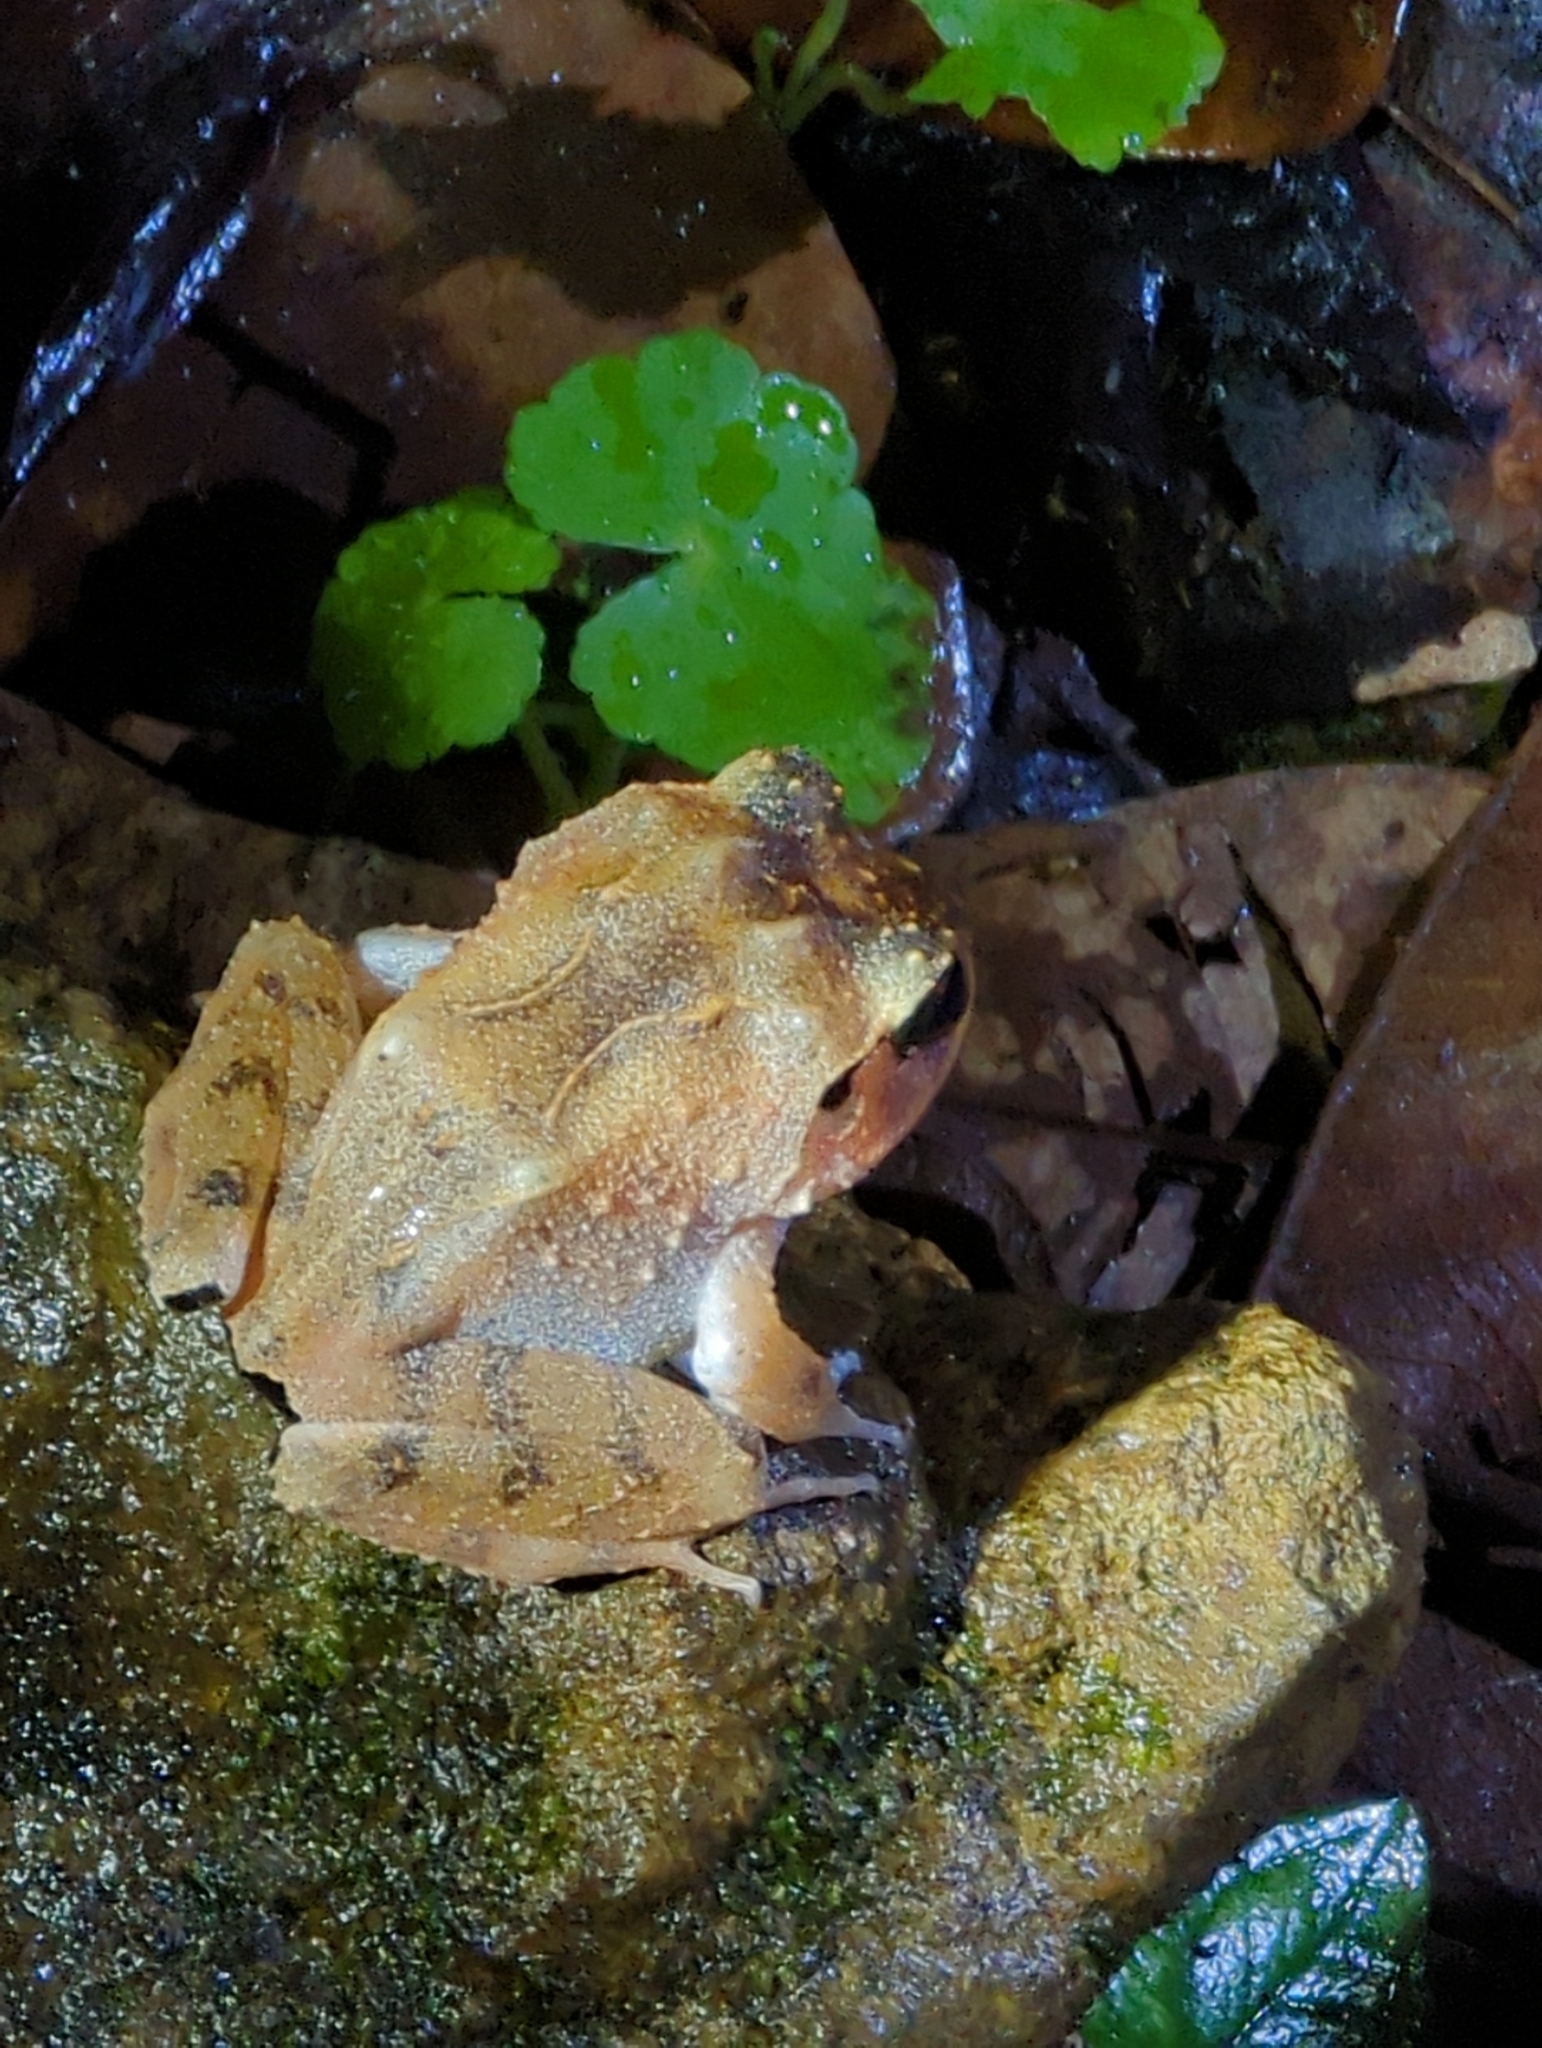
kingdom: Animalia
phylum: Chordata
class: Amphibia
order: Anura
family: Craugastoridae
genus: Craugastor
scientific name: Craugastor megacephalus
